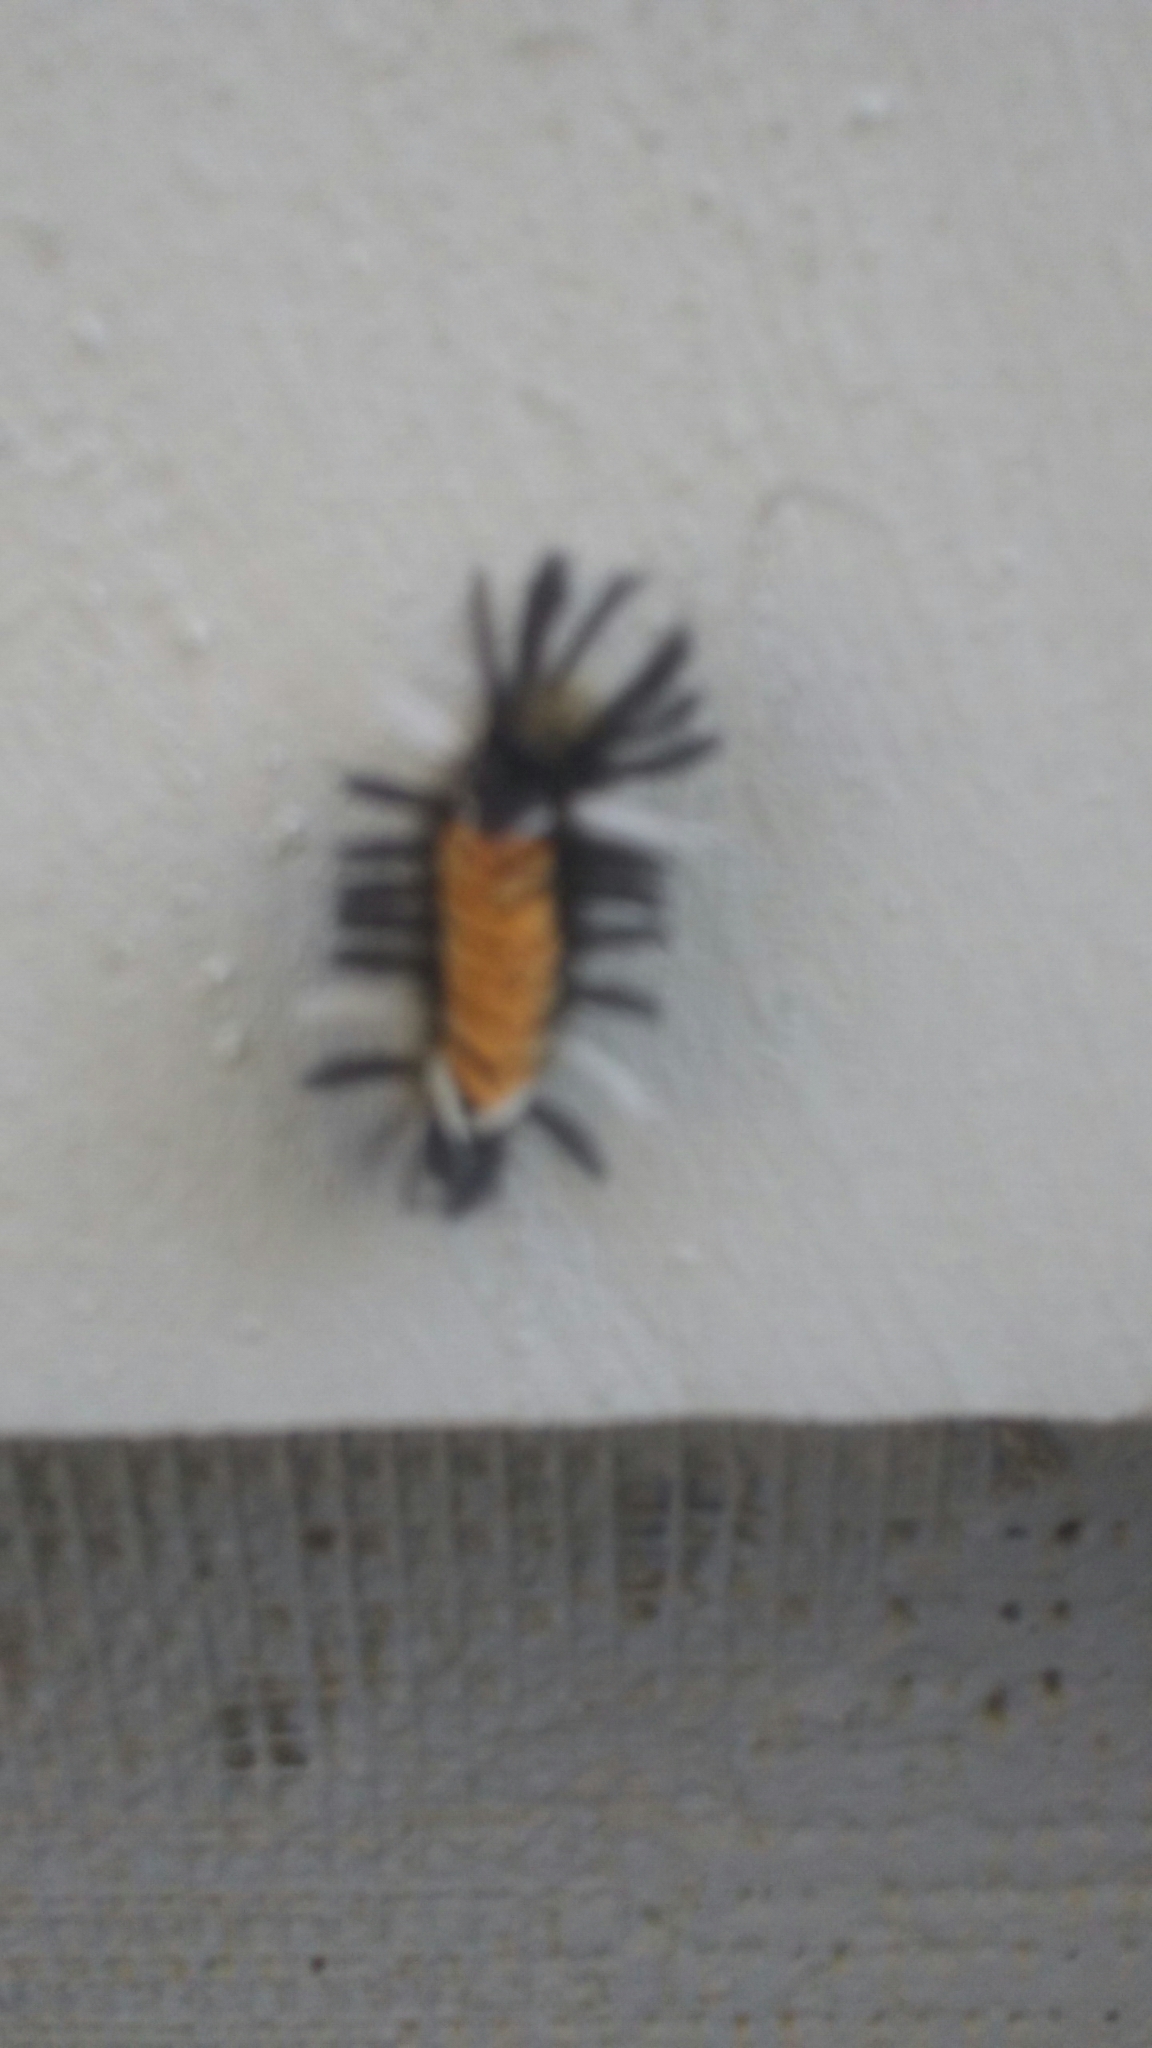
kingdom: Animalia
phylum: Arthropoda
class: Insecta
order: Lepidoptera
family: Erebidae
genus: Euchaetes
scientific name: Euchaetes egle
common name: Milkweed tussock moth
